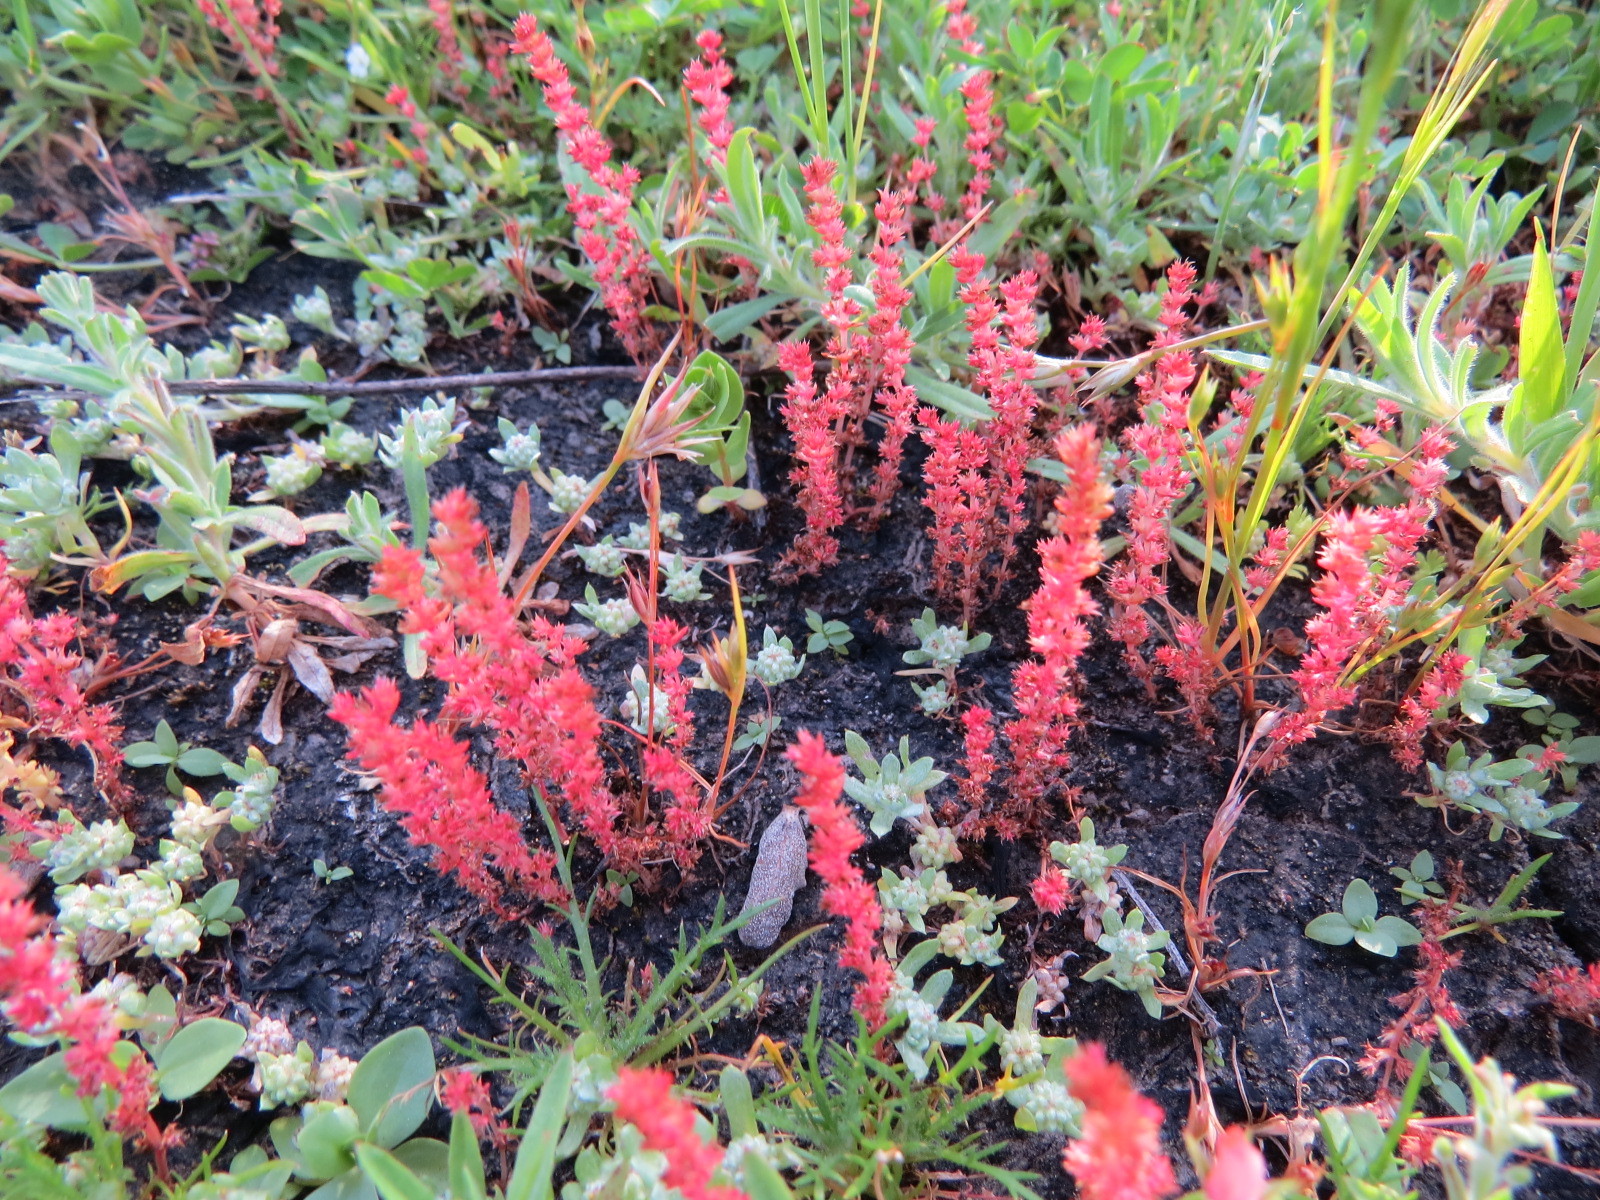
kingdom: Plantae
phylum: Tracheophyta
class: Magnoliopsida
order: Saxifragales
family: Crassulaceae
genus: Crassula
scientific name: Crassula connata
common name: Erect pygmyweed
